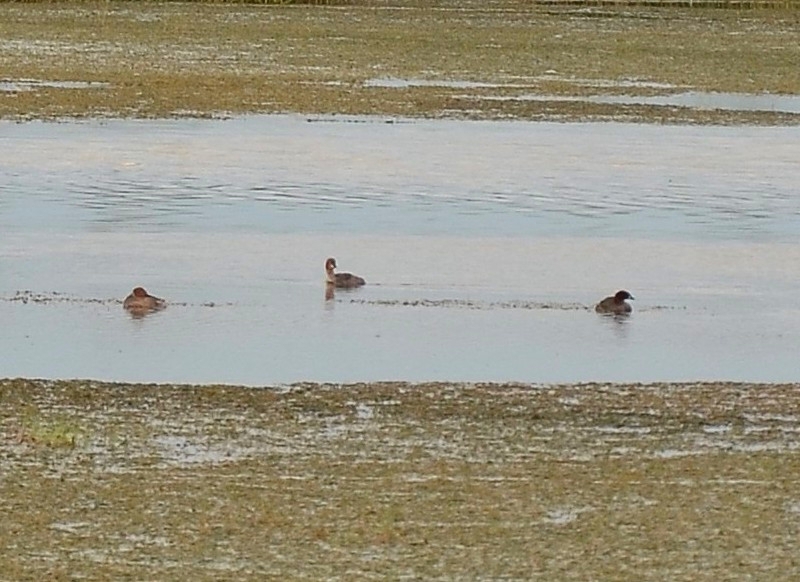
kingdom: Animalia
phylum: Chordata
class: Aves
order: Podicipediformes
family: Podicipedidae
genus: Tachybaptus
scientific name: Tachybaptus ruficollis
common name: Little grebe
